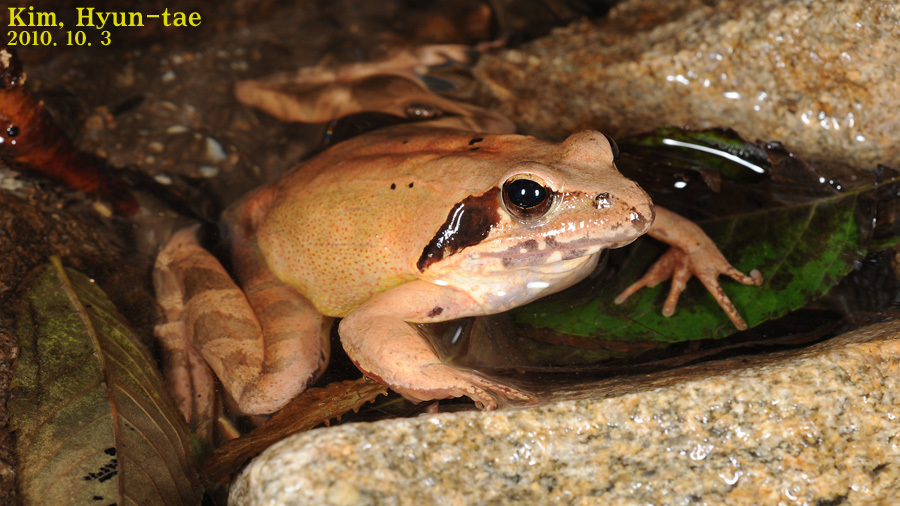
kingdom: Animalia
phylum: Chordata
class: Amphibia
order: Anura
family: Ranidae
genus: Rana
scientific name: Rana uenoi
